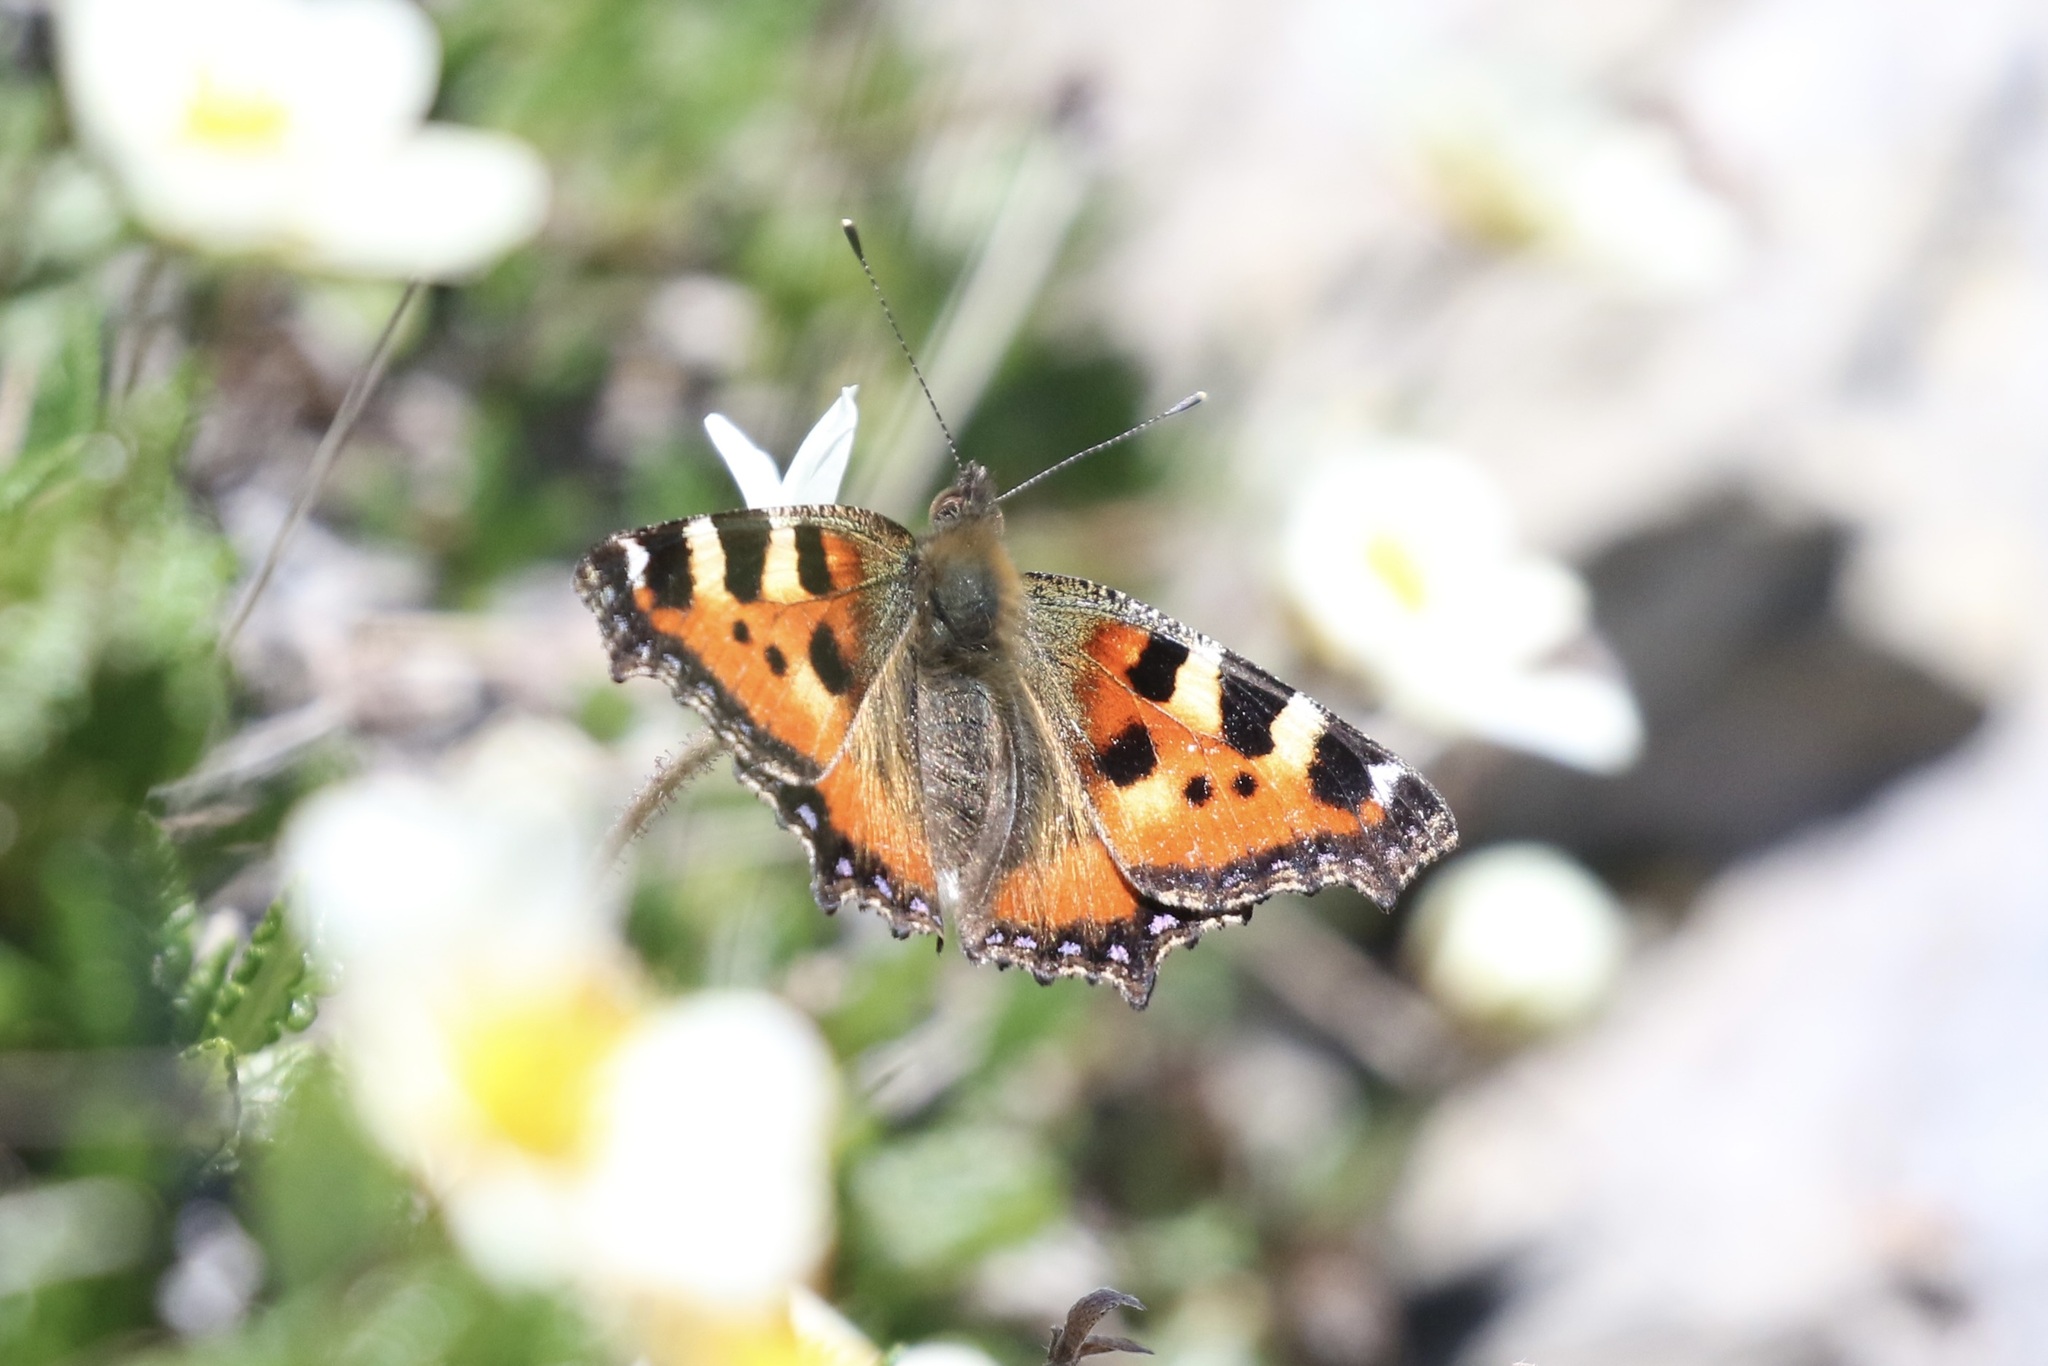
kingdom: Animalia
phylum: Arthropoda
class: Insecta
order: Lepidoptera
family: Nymphalidae
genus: Aglais
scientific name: Aglais urticae
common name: Small tortoiseshell
